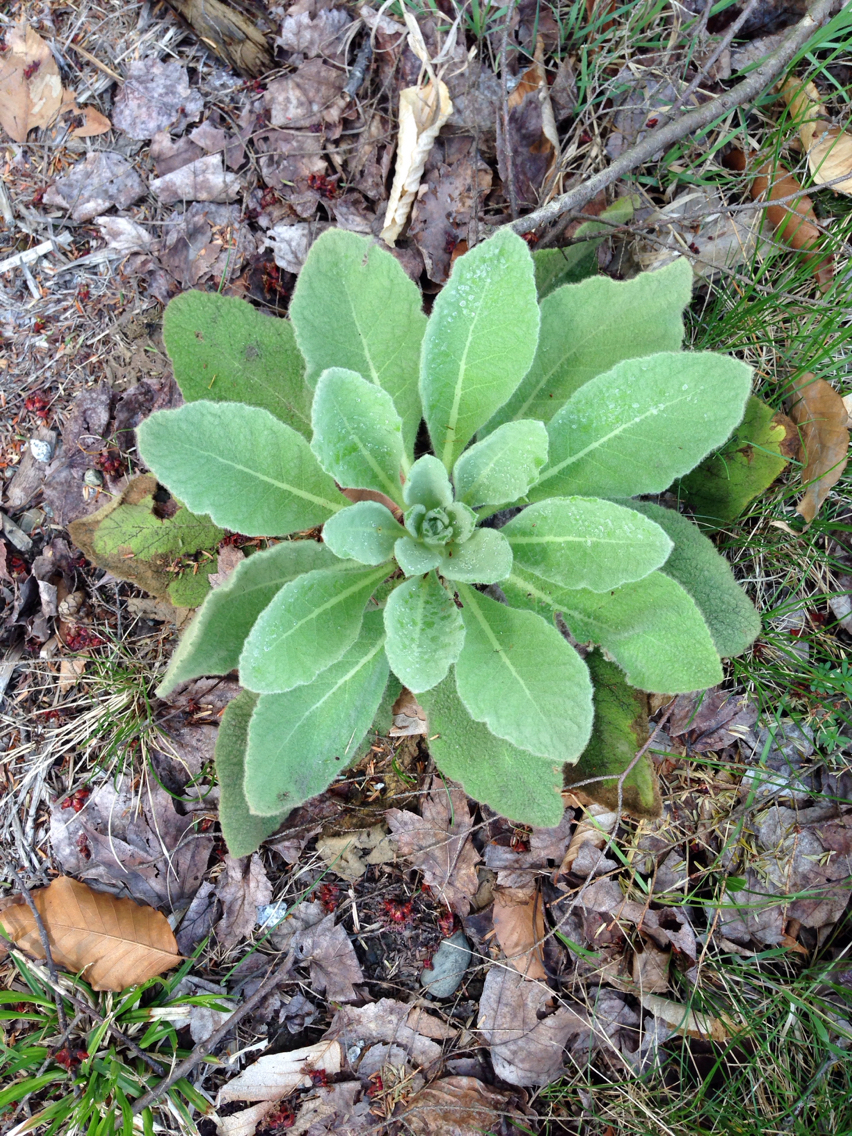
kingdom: Plantae
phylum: Tracheophyta
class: Magnoliopsida
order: Lamiales
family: Scrophulariaceae
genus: Verbascum
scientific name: Verbascum thapsus
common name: Common mullein
